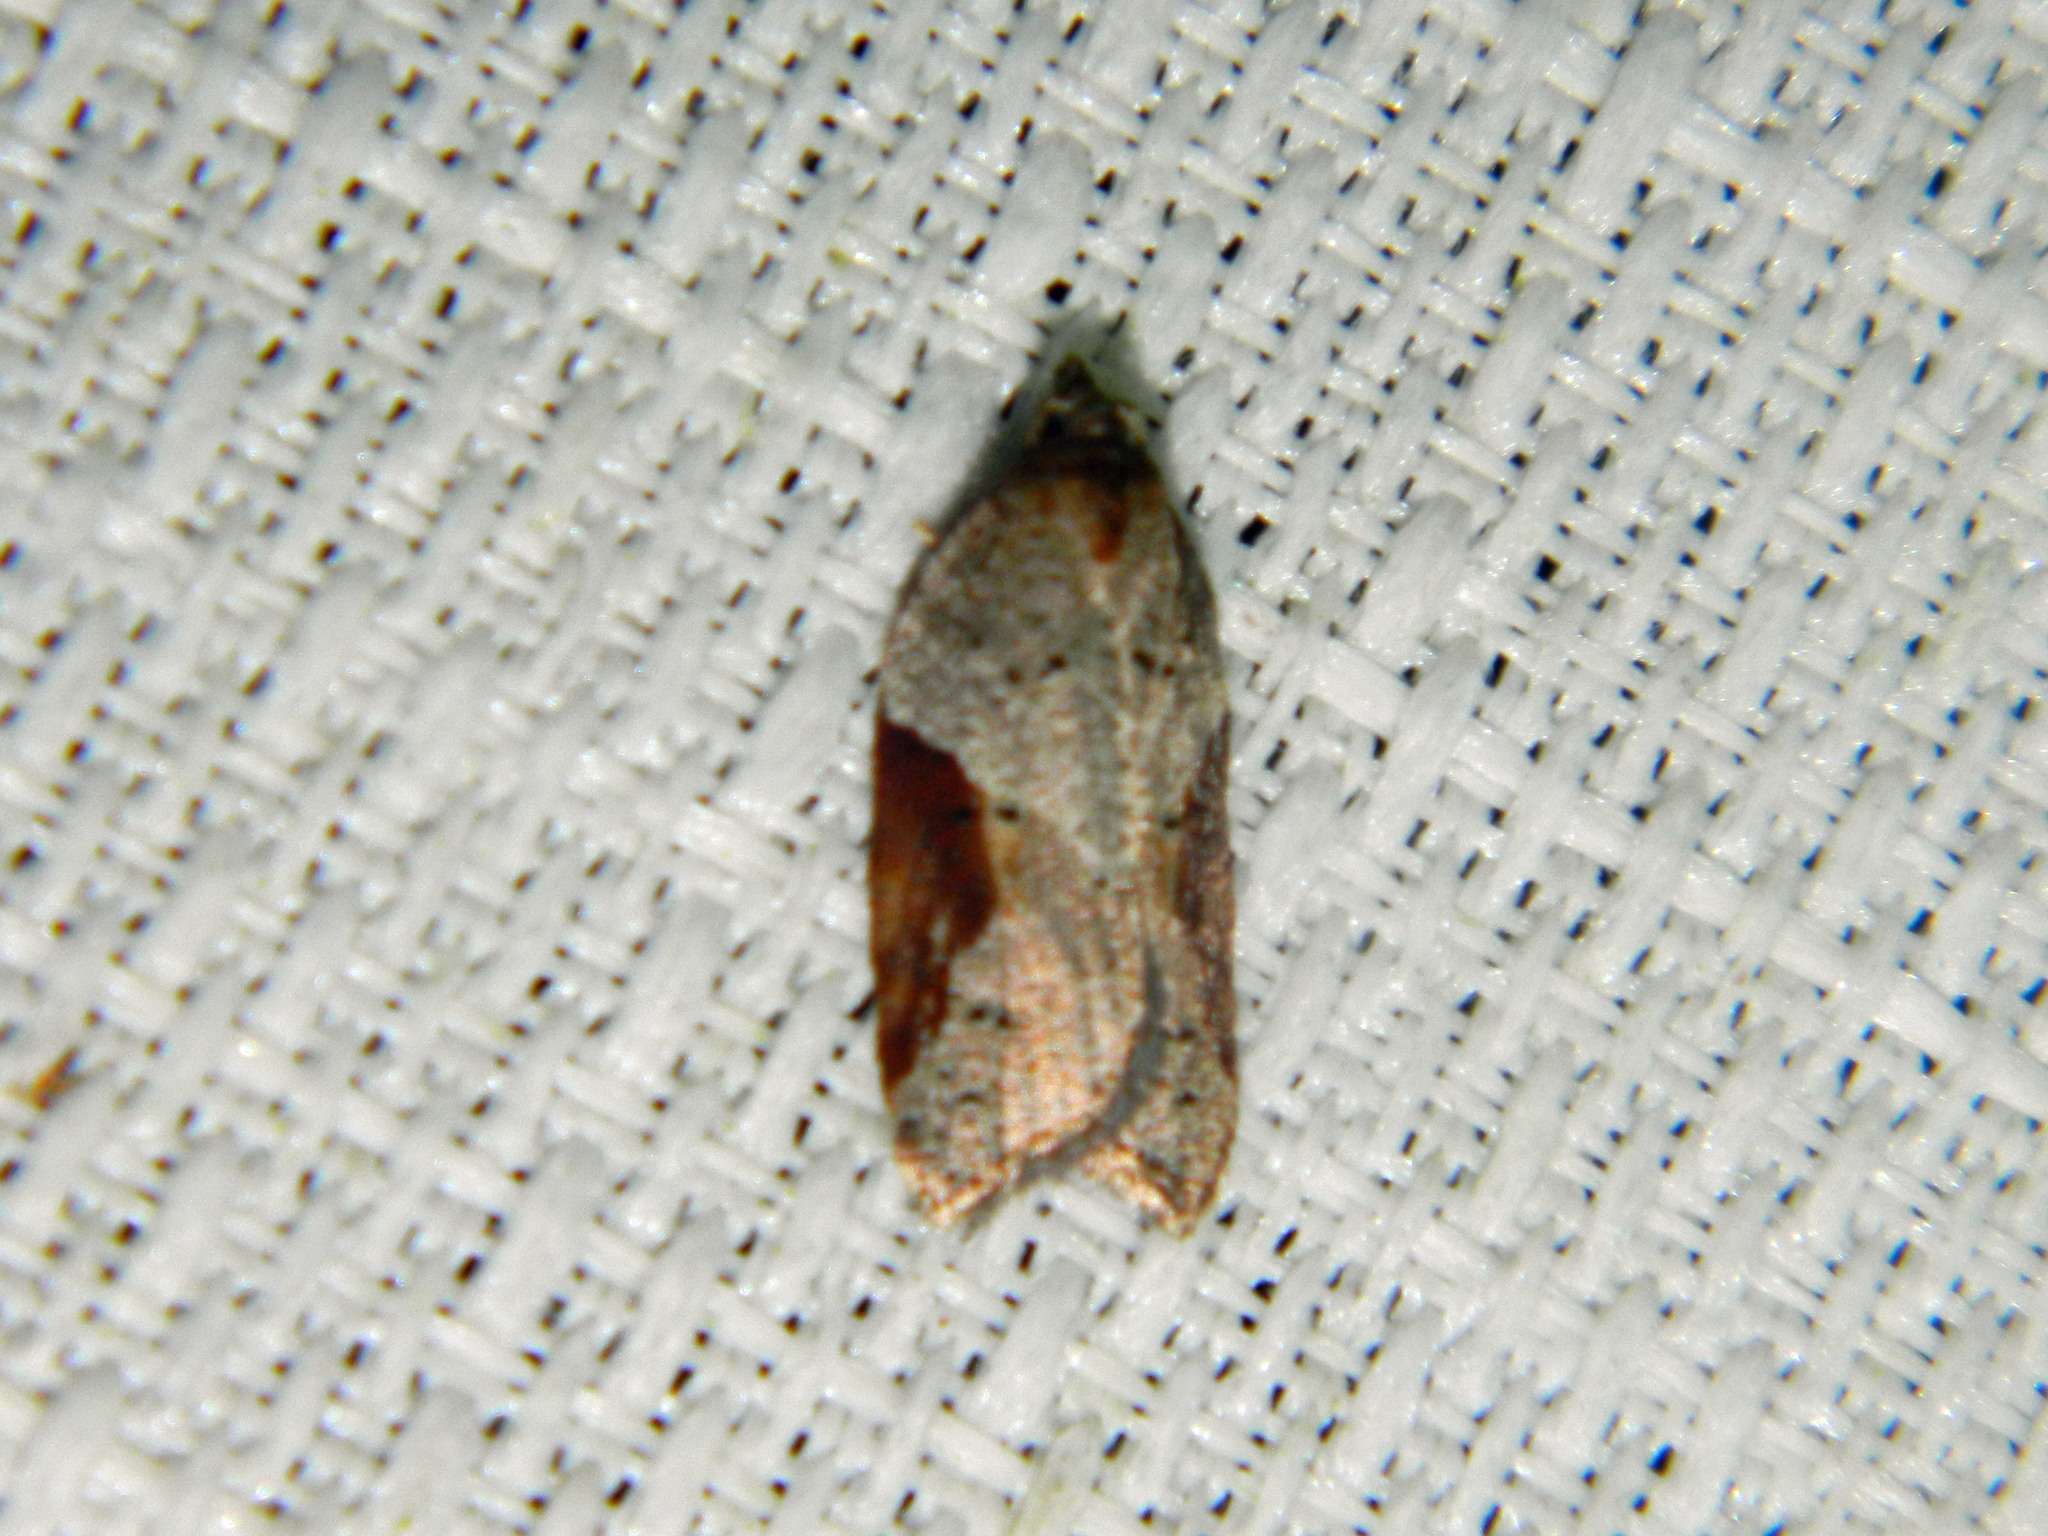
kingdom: Animalia
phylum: Arthropoda
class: Insecta
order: Lepidoptera
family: Tortricidae
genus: Acleris
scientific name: Acleris macdunnoughi
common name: Macdunnough's acleris
